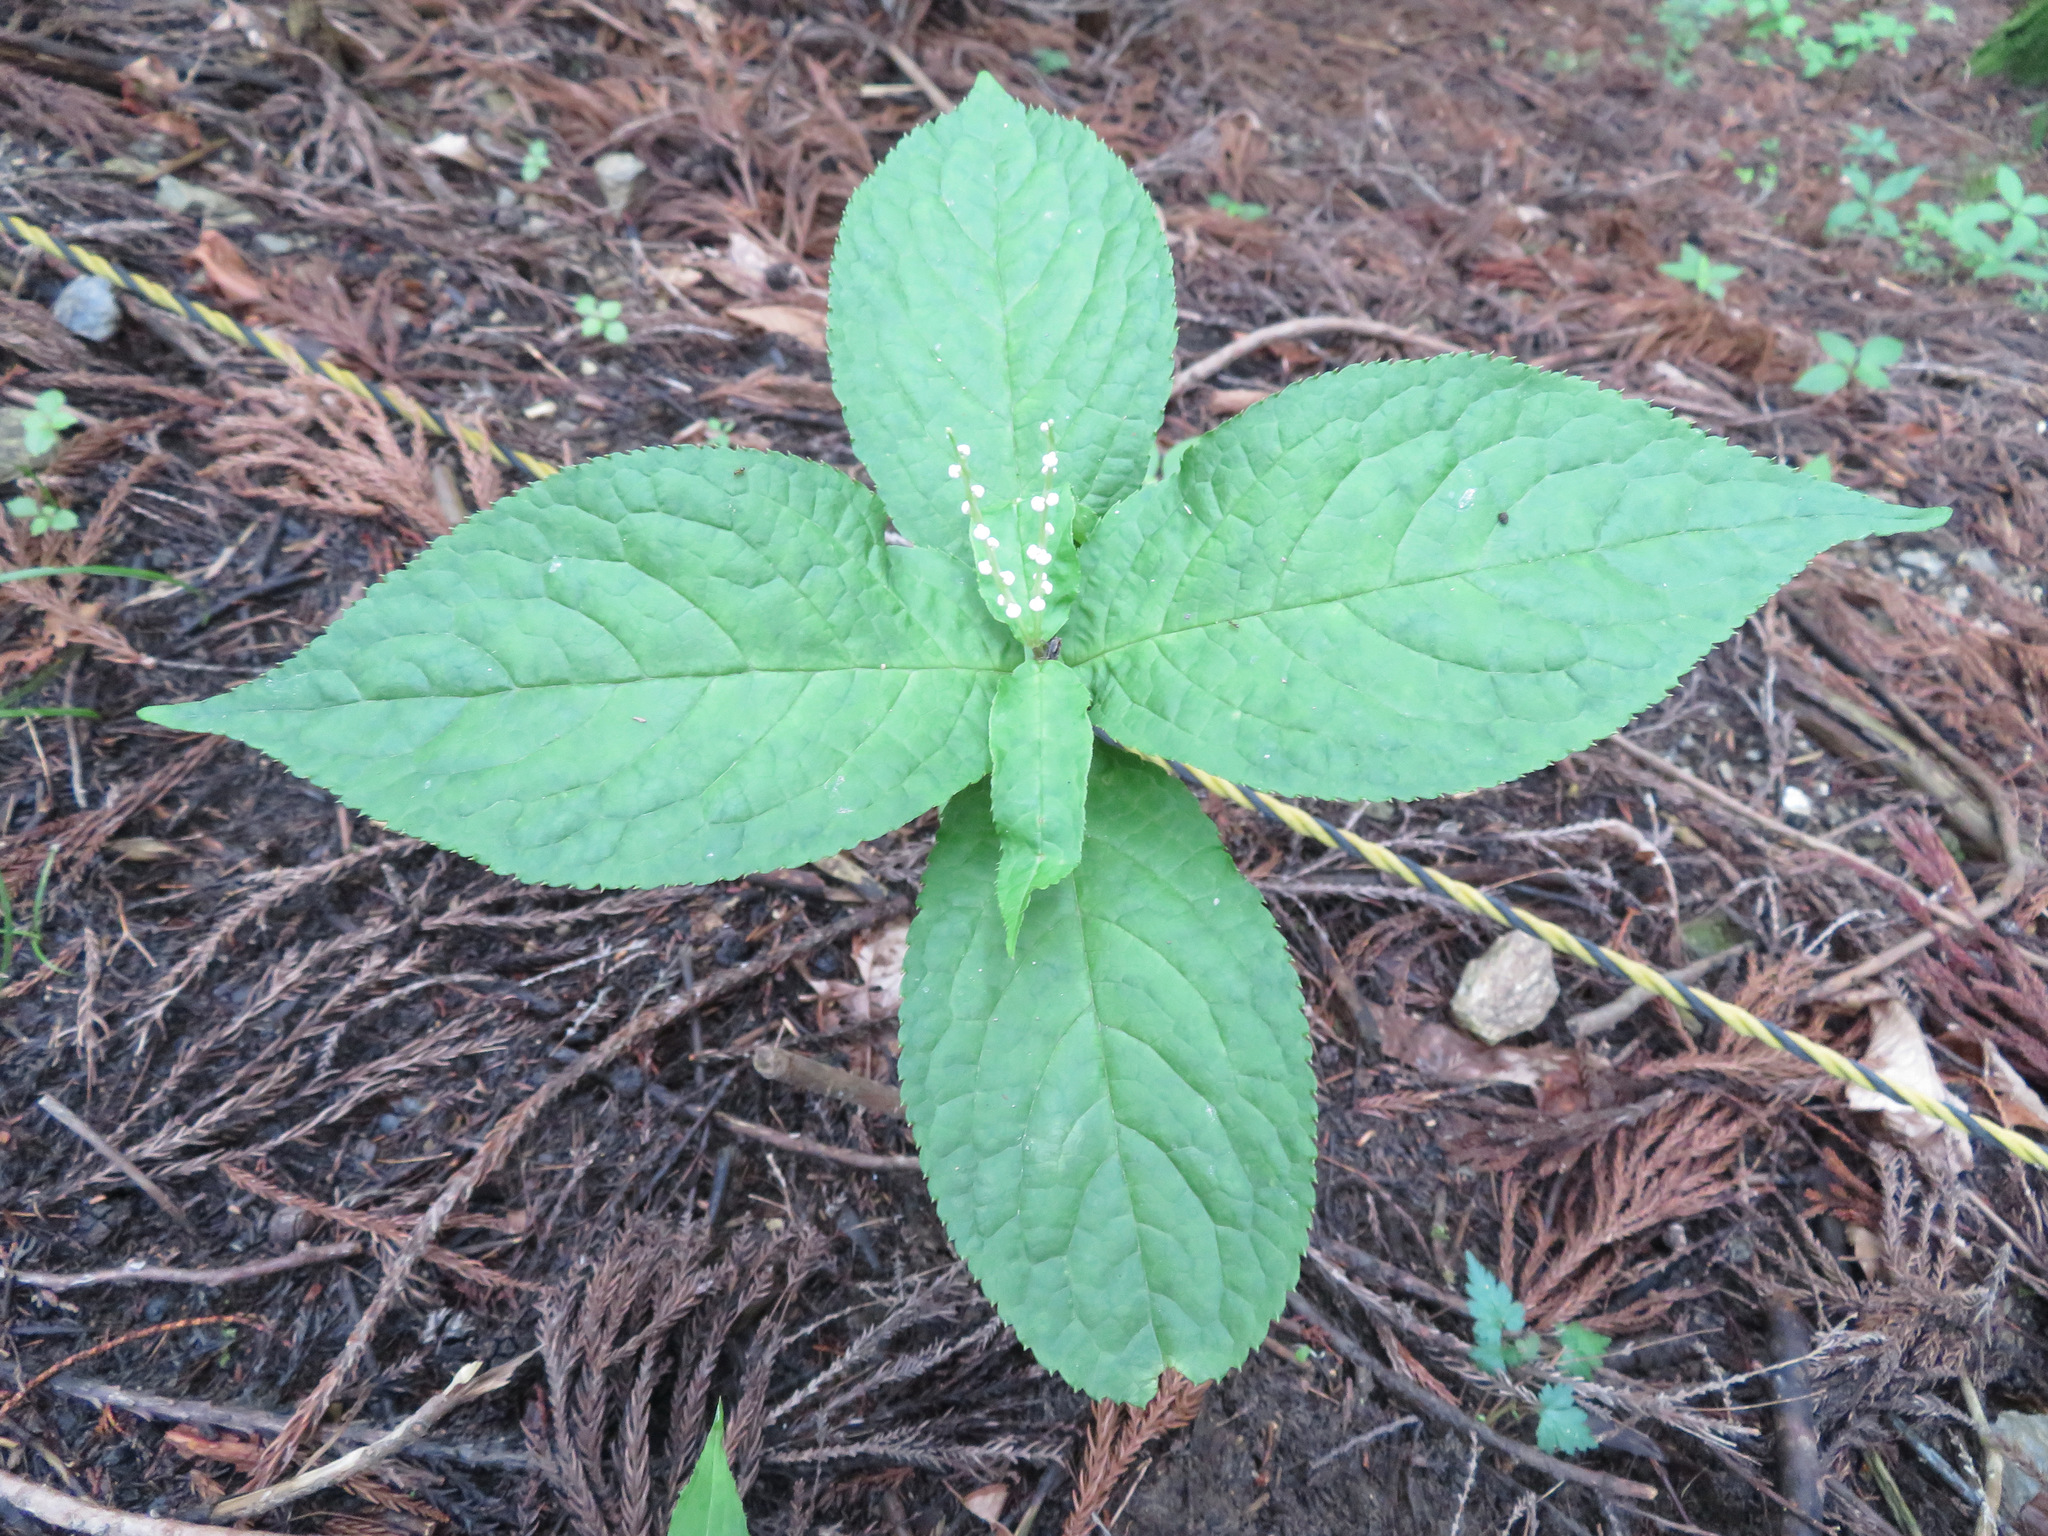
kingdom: Plantae
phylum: Tracheophyta
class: Magnoliopsida
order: Chloranthales
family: Chloranthaceae
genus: Chloranthus
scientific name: Chloranthus serratus
